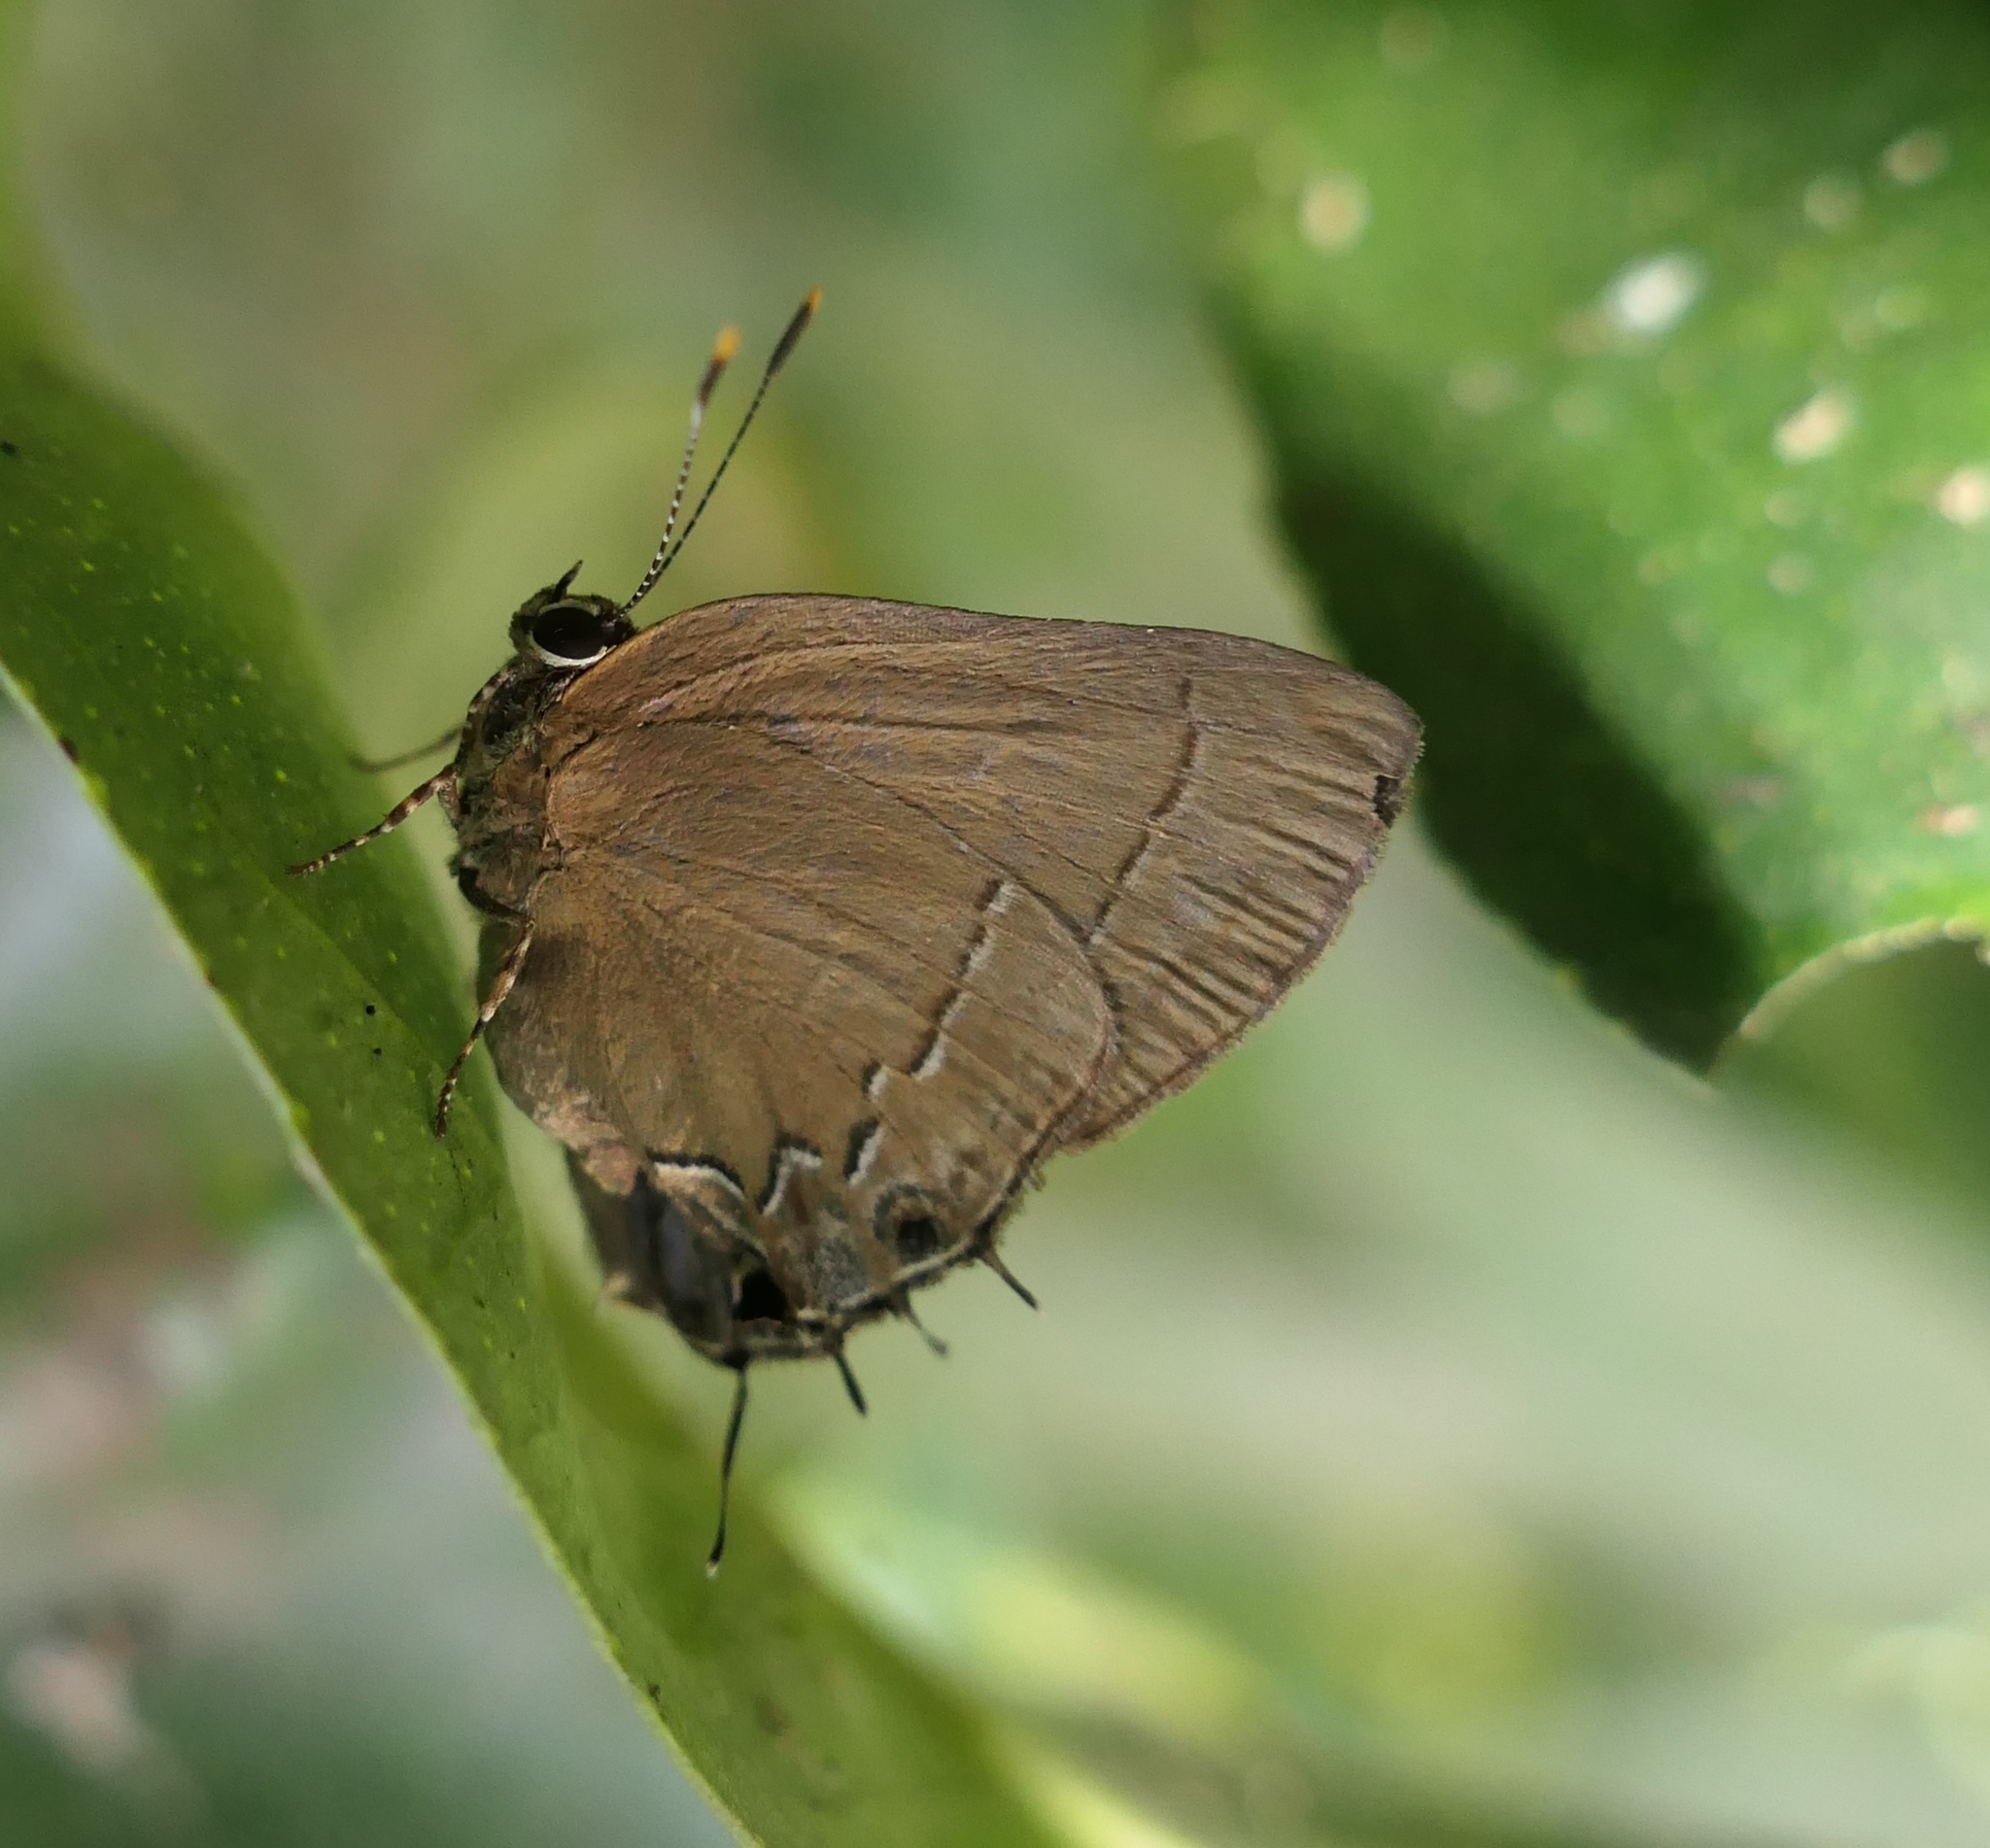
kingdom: Animalia
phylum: Arthropoda
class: Insecta
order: Lepidoptera
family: Lycaenidae
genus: Ziegleria
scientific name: Ziegleria hesperitis
